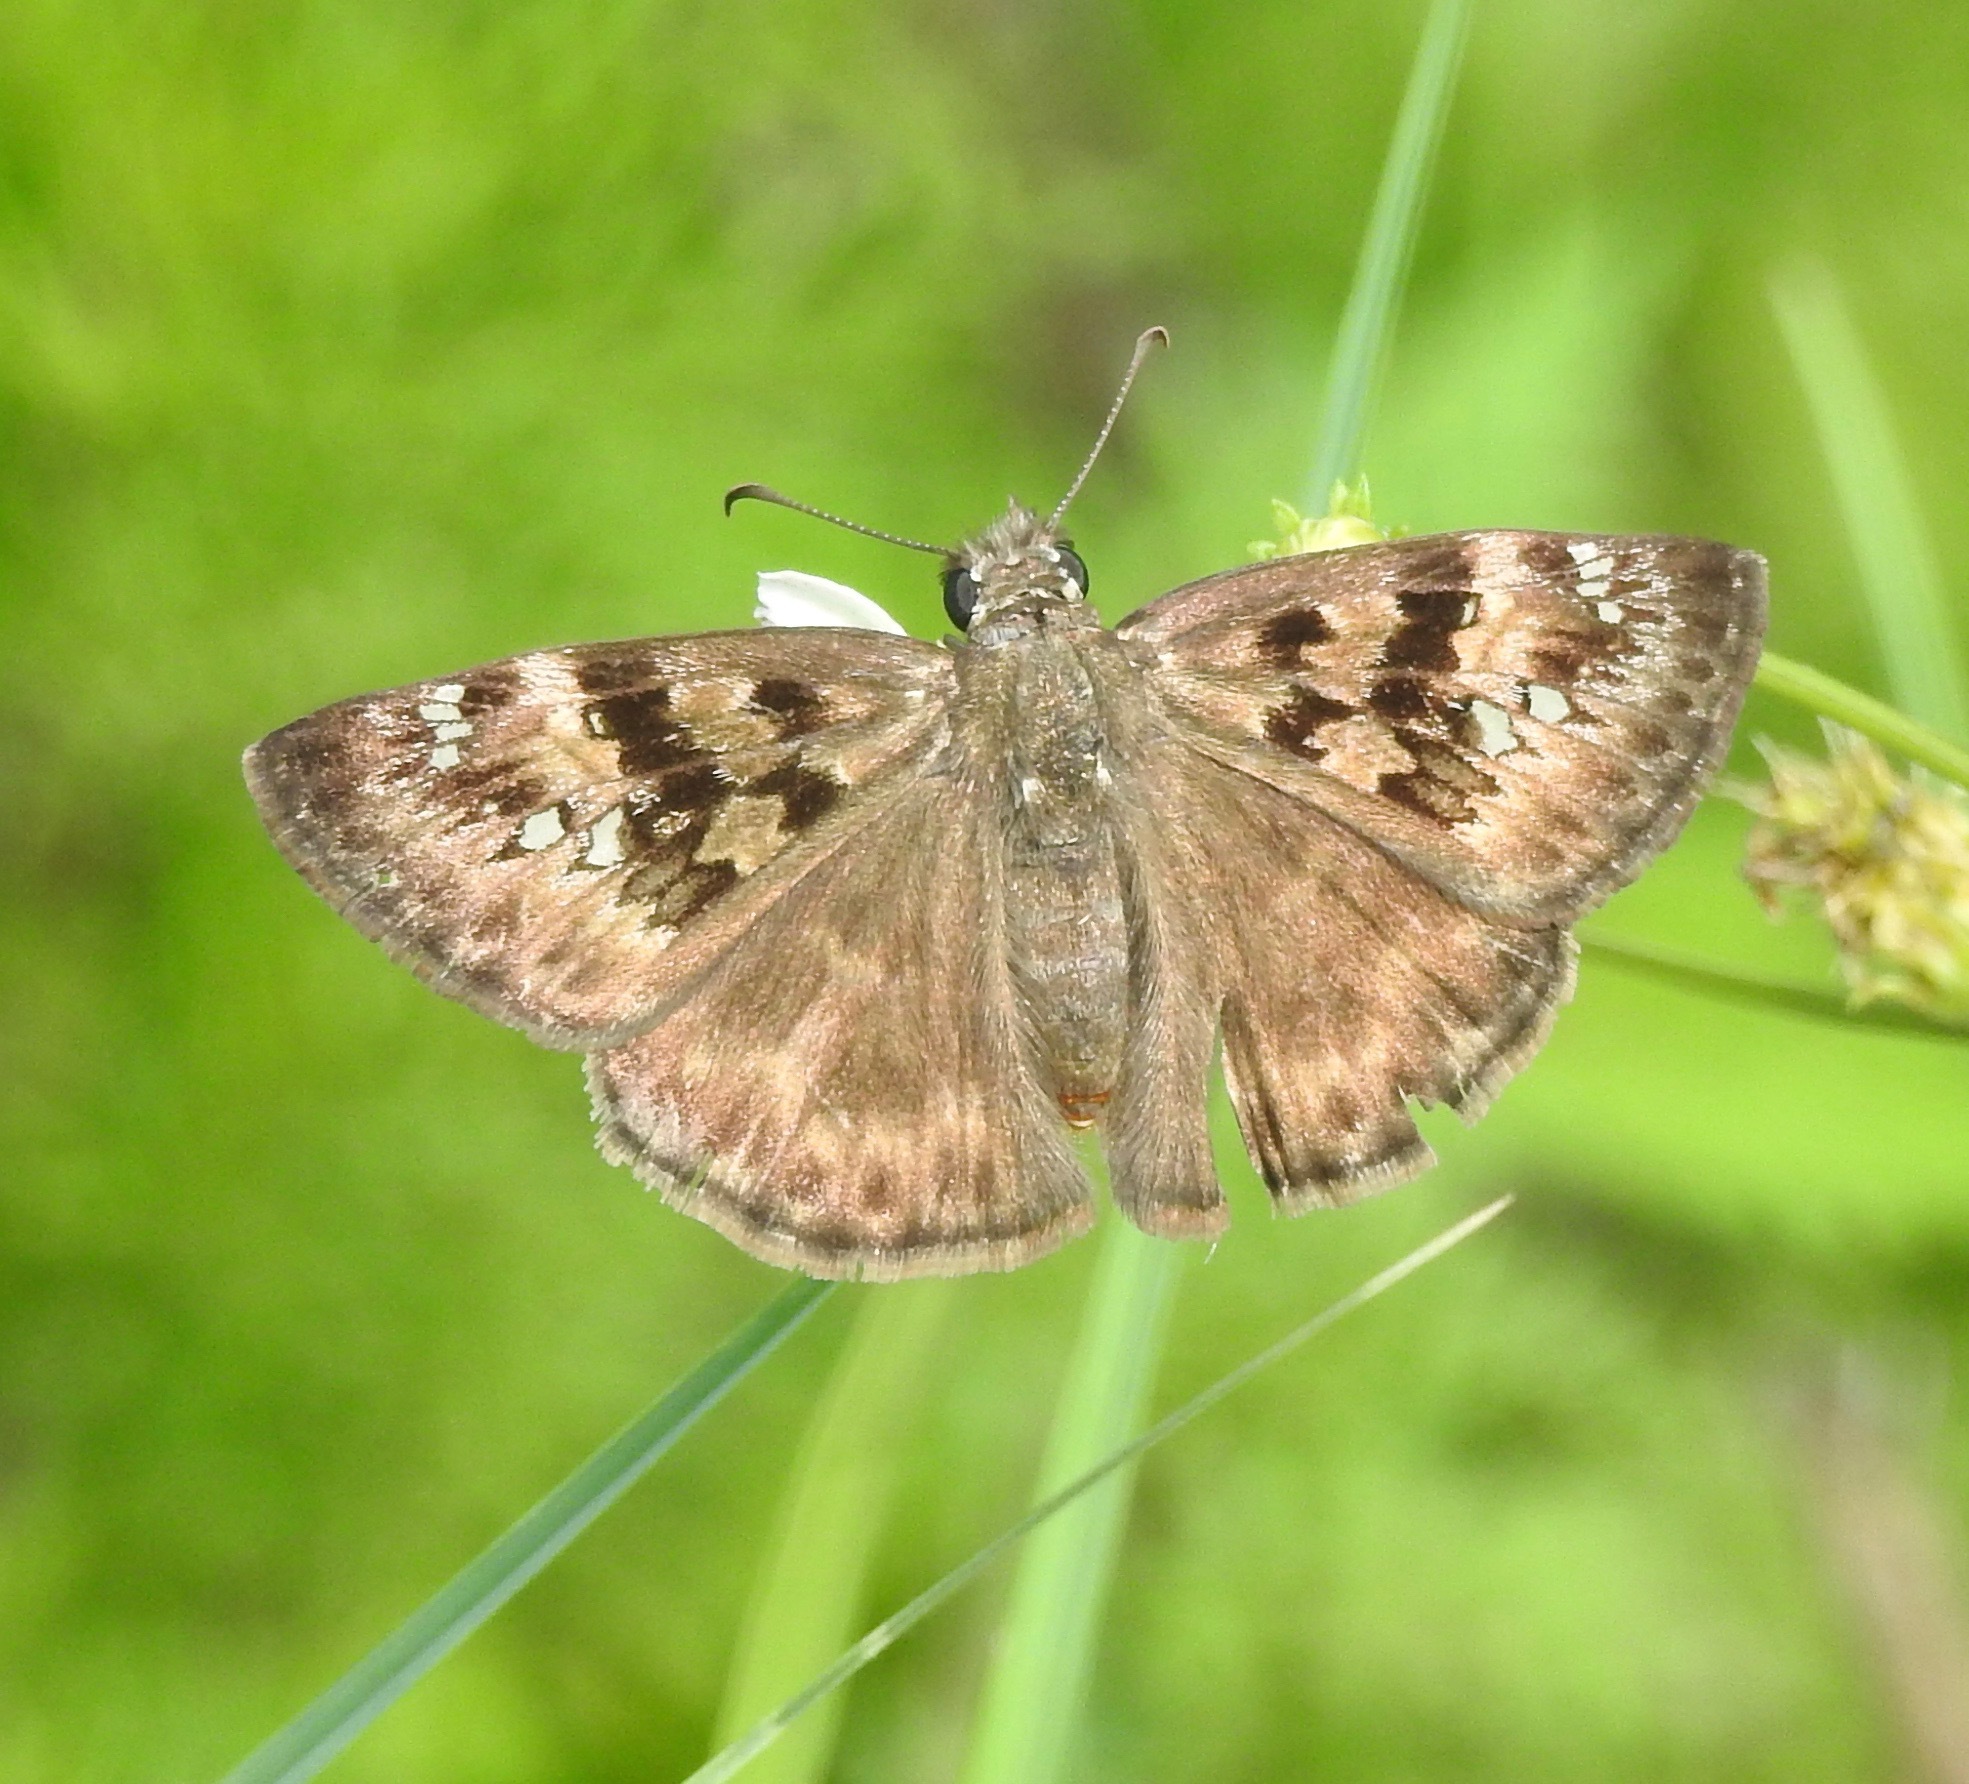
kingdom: Animalia
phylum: Arthropoda
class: Insecta
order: Lepidoptera
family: Hesperiidae
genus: Erynnis
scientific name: Erynnis horatius
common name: Horace's duskywing
